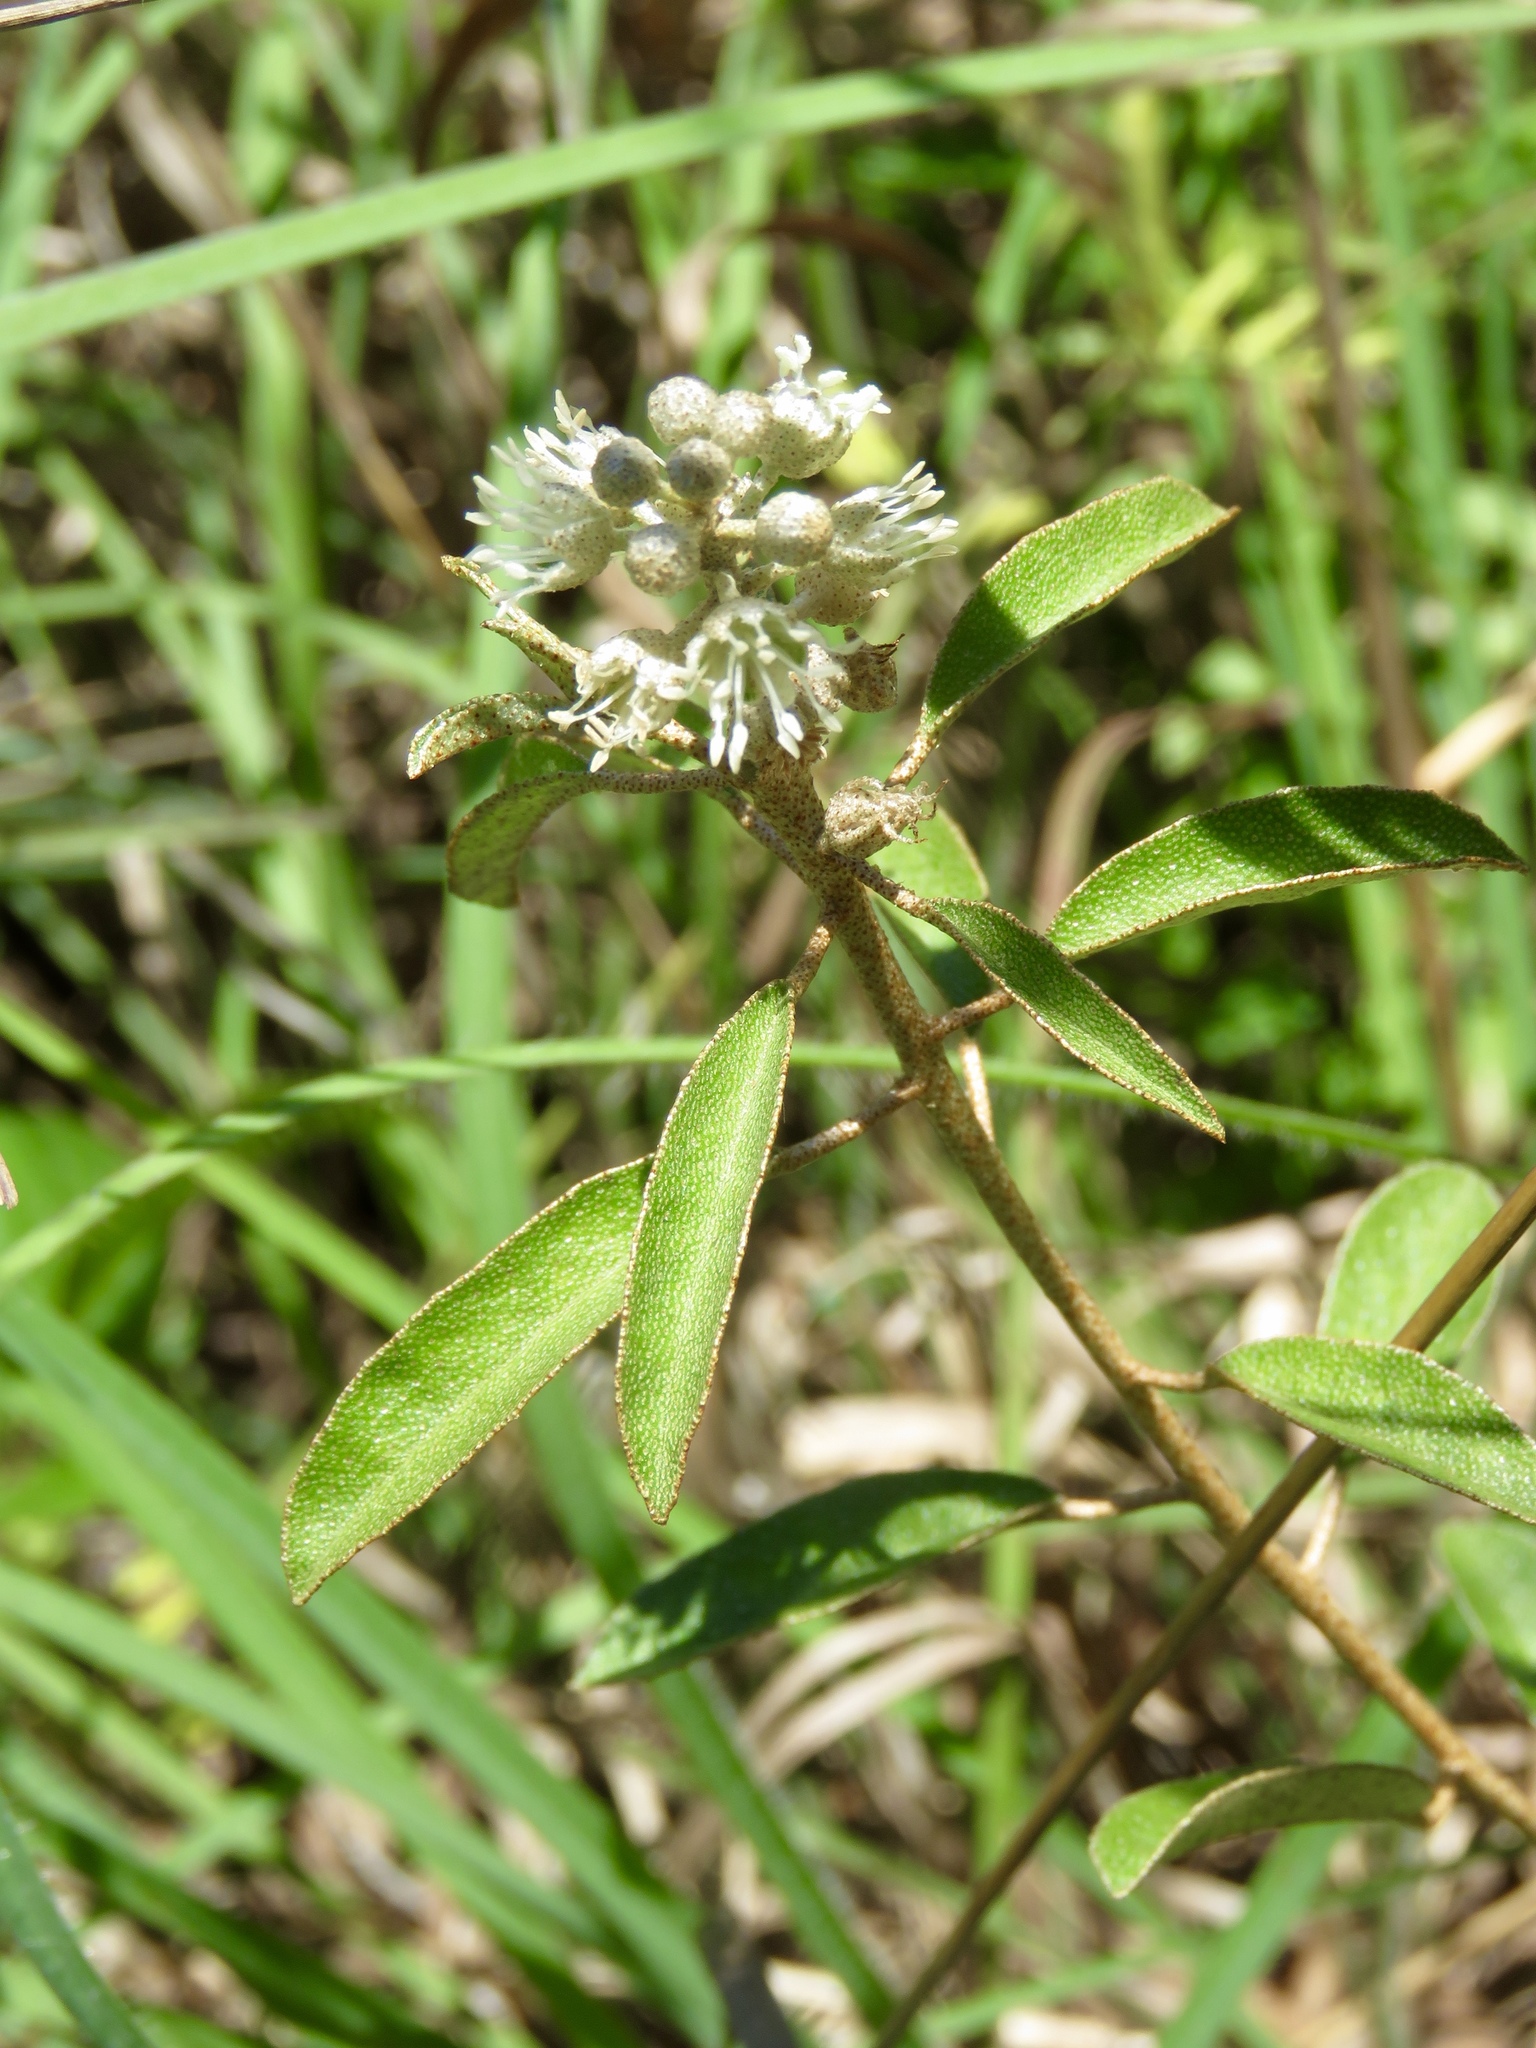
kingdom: Plantae
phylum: Tracheophyta
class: Magnoliopsida
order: Malpighiales
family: Euphorbiaceae
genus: Croton
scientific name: Croton argyranthemus
